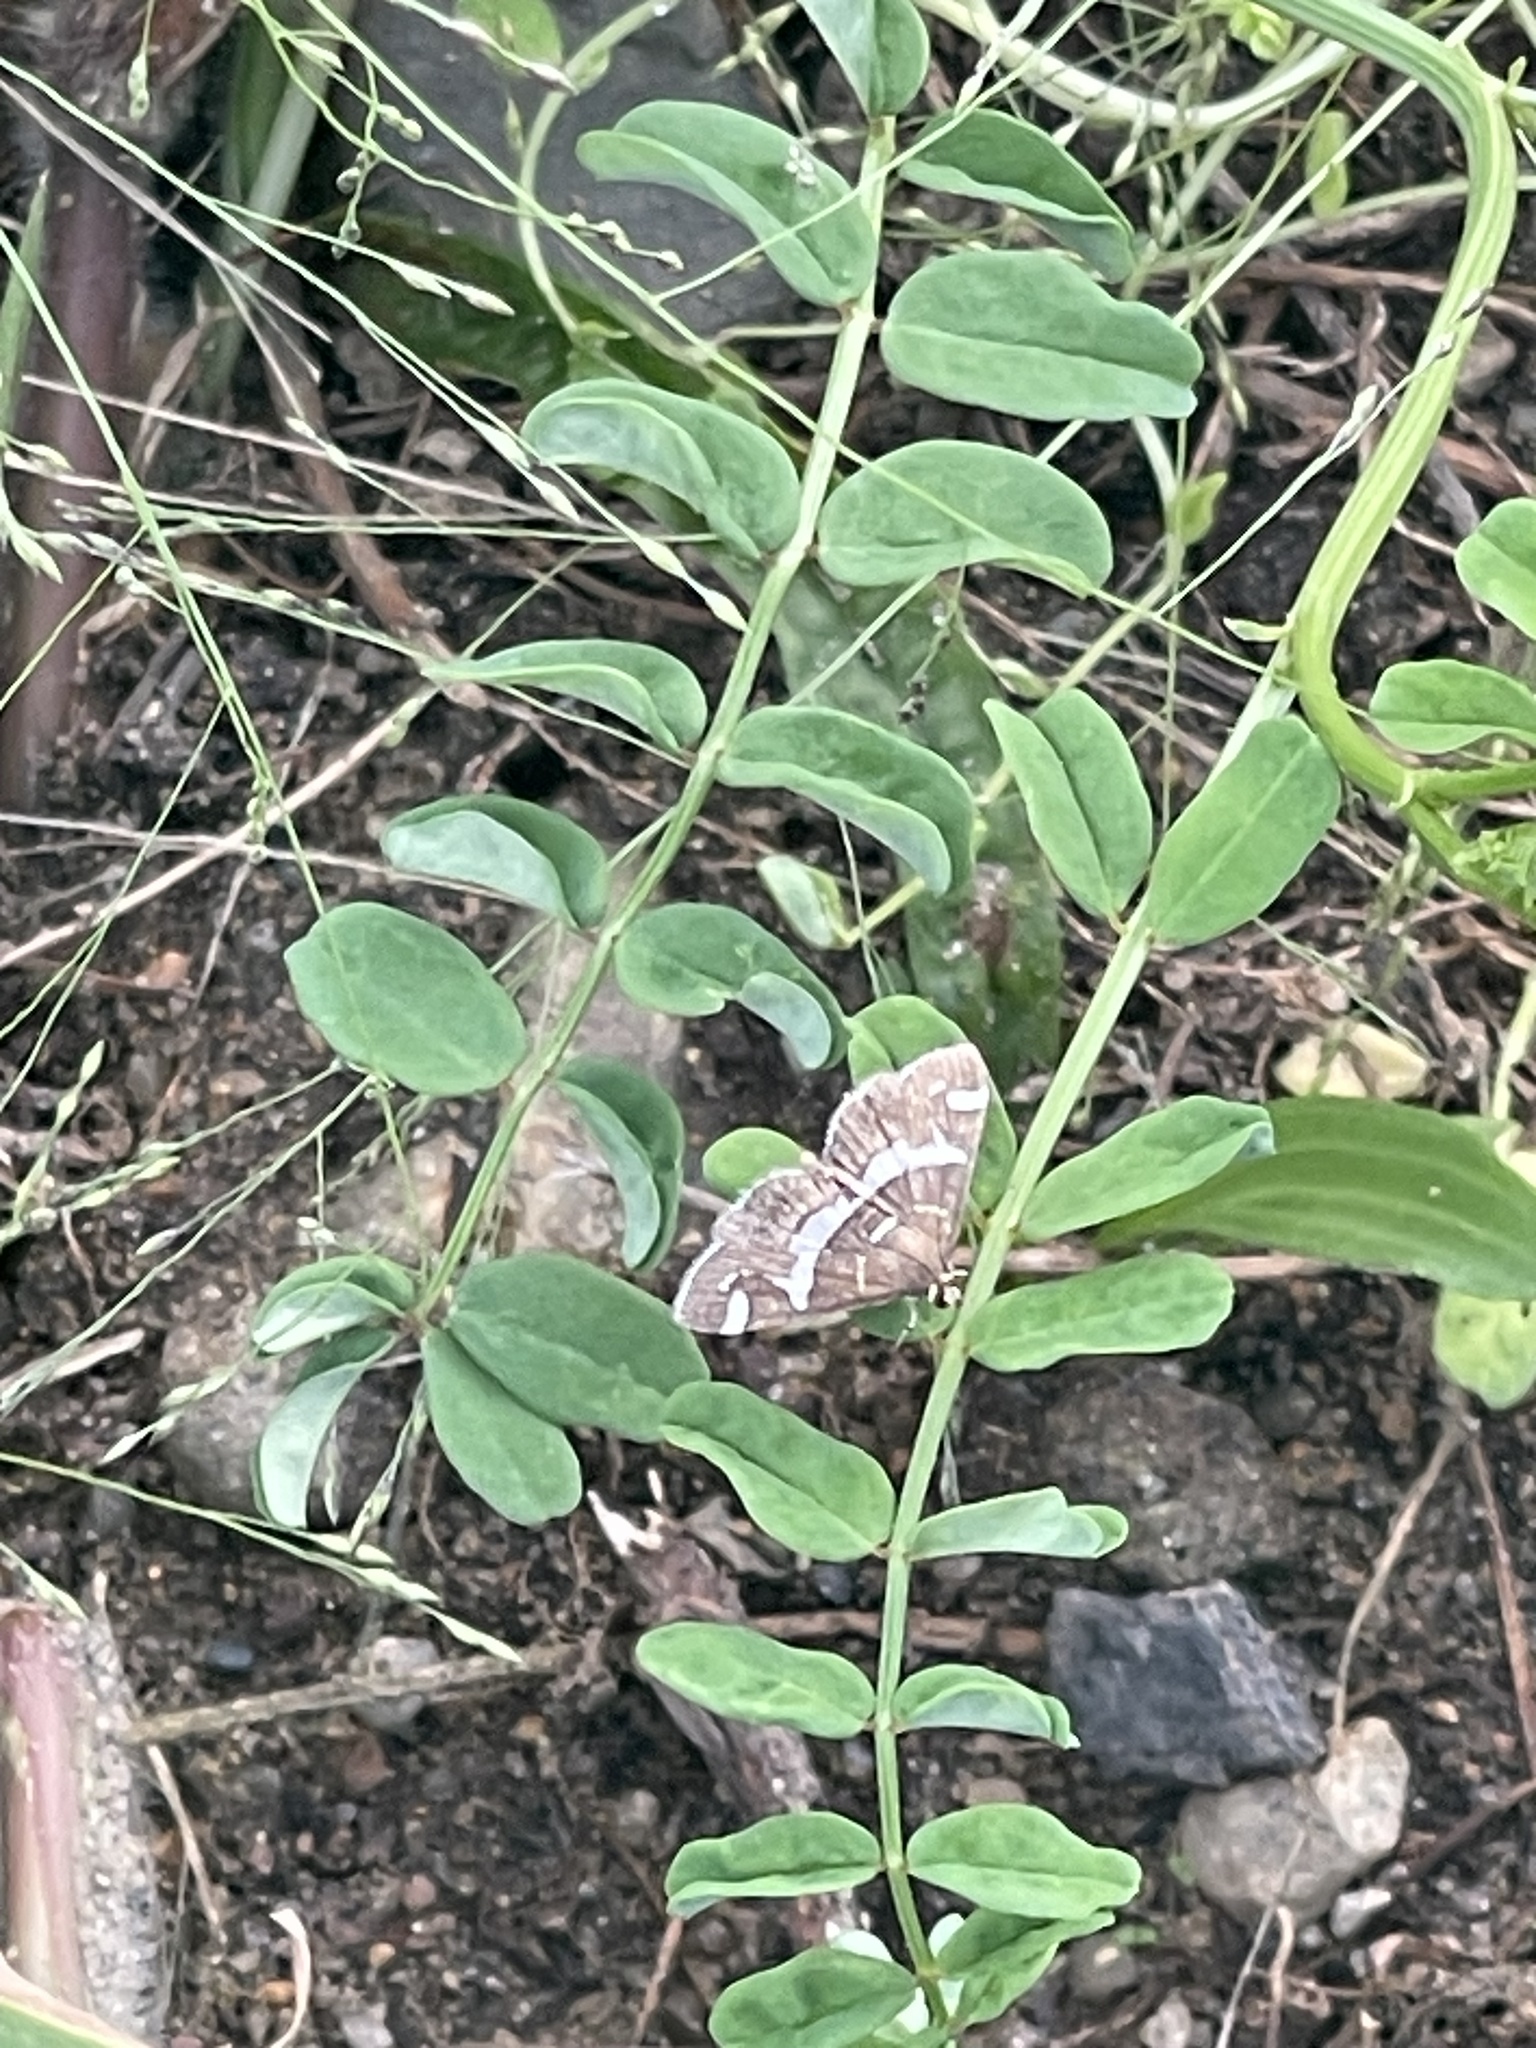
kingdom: Animalia
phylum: Arthropoda
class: Insecta
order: Lepidoptera
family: Crambidae
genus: Spoladea
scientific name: Spoladea recurvalis
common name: Beet webworm moth
